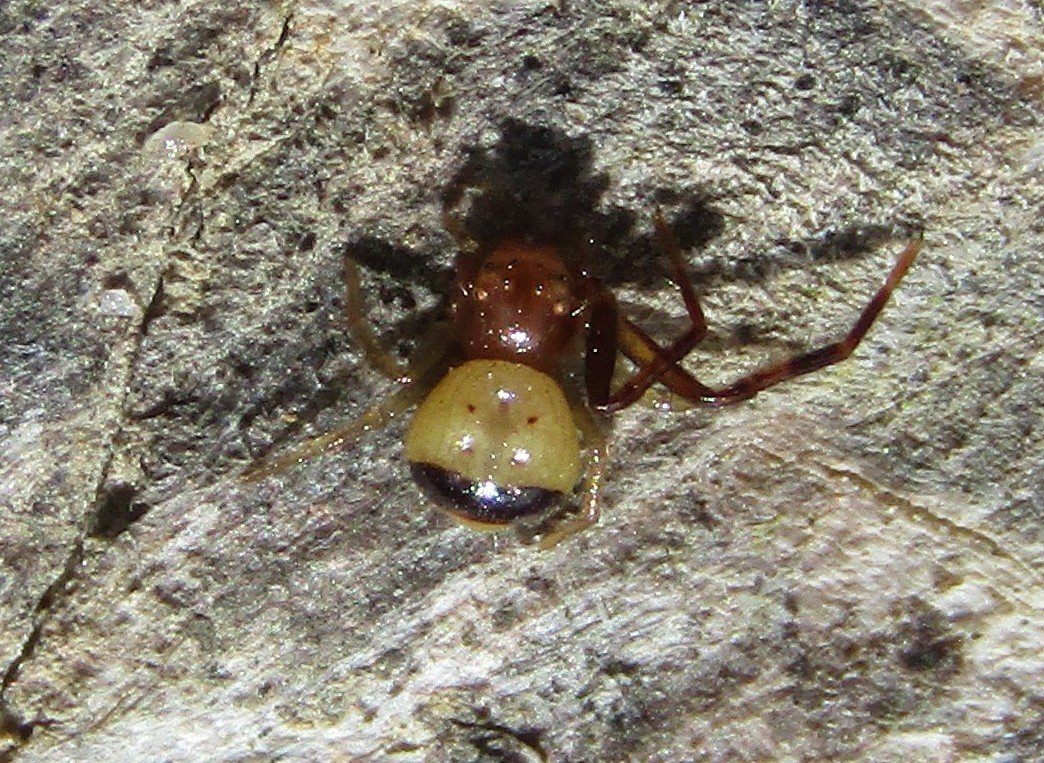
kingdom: Animalia
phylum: Arthropoda
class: Arachnida
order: Araneae
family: Thomisidae
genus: Synema
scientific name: Synema parvulum
